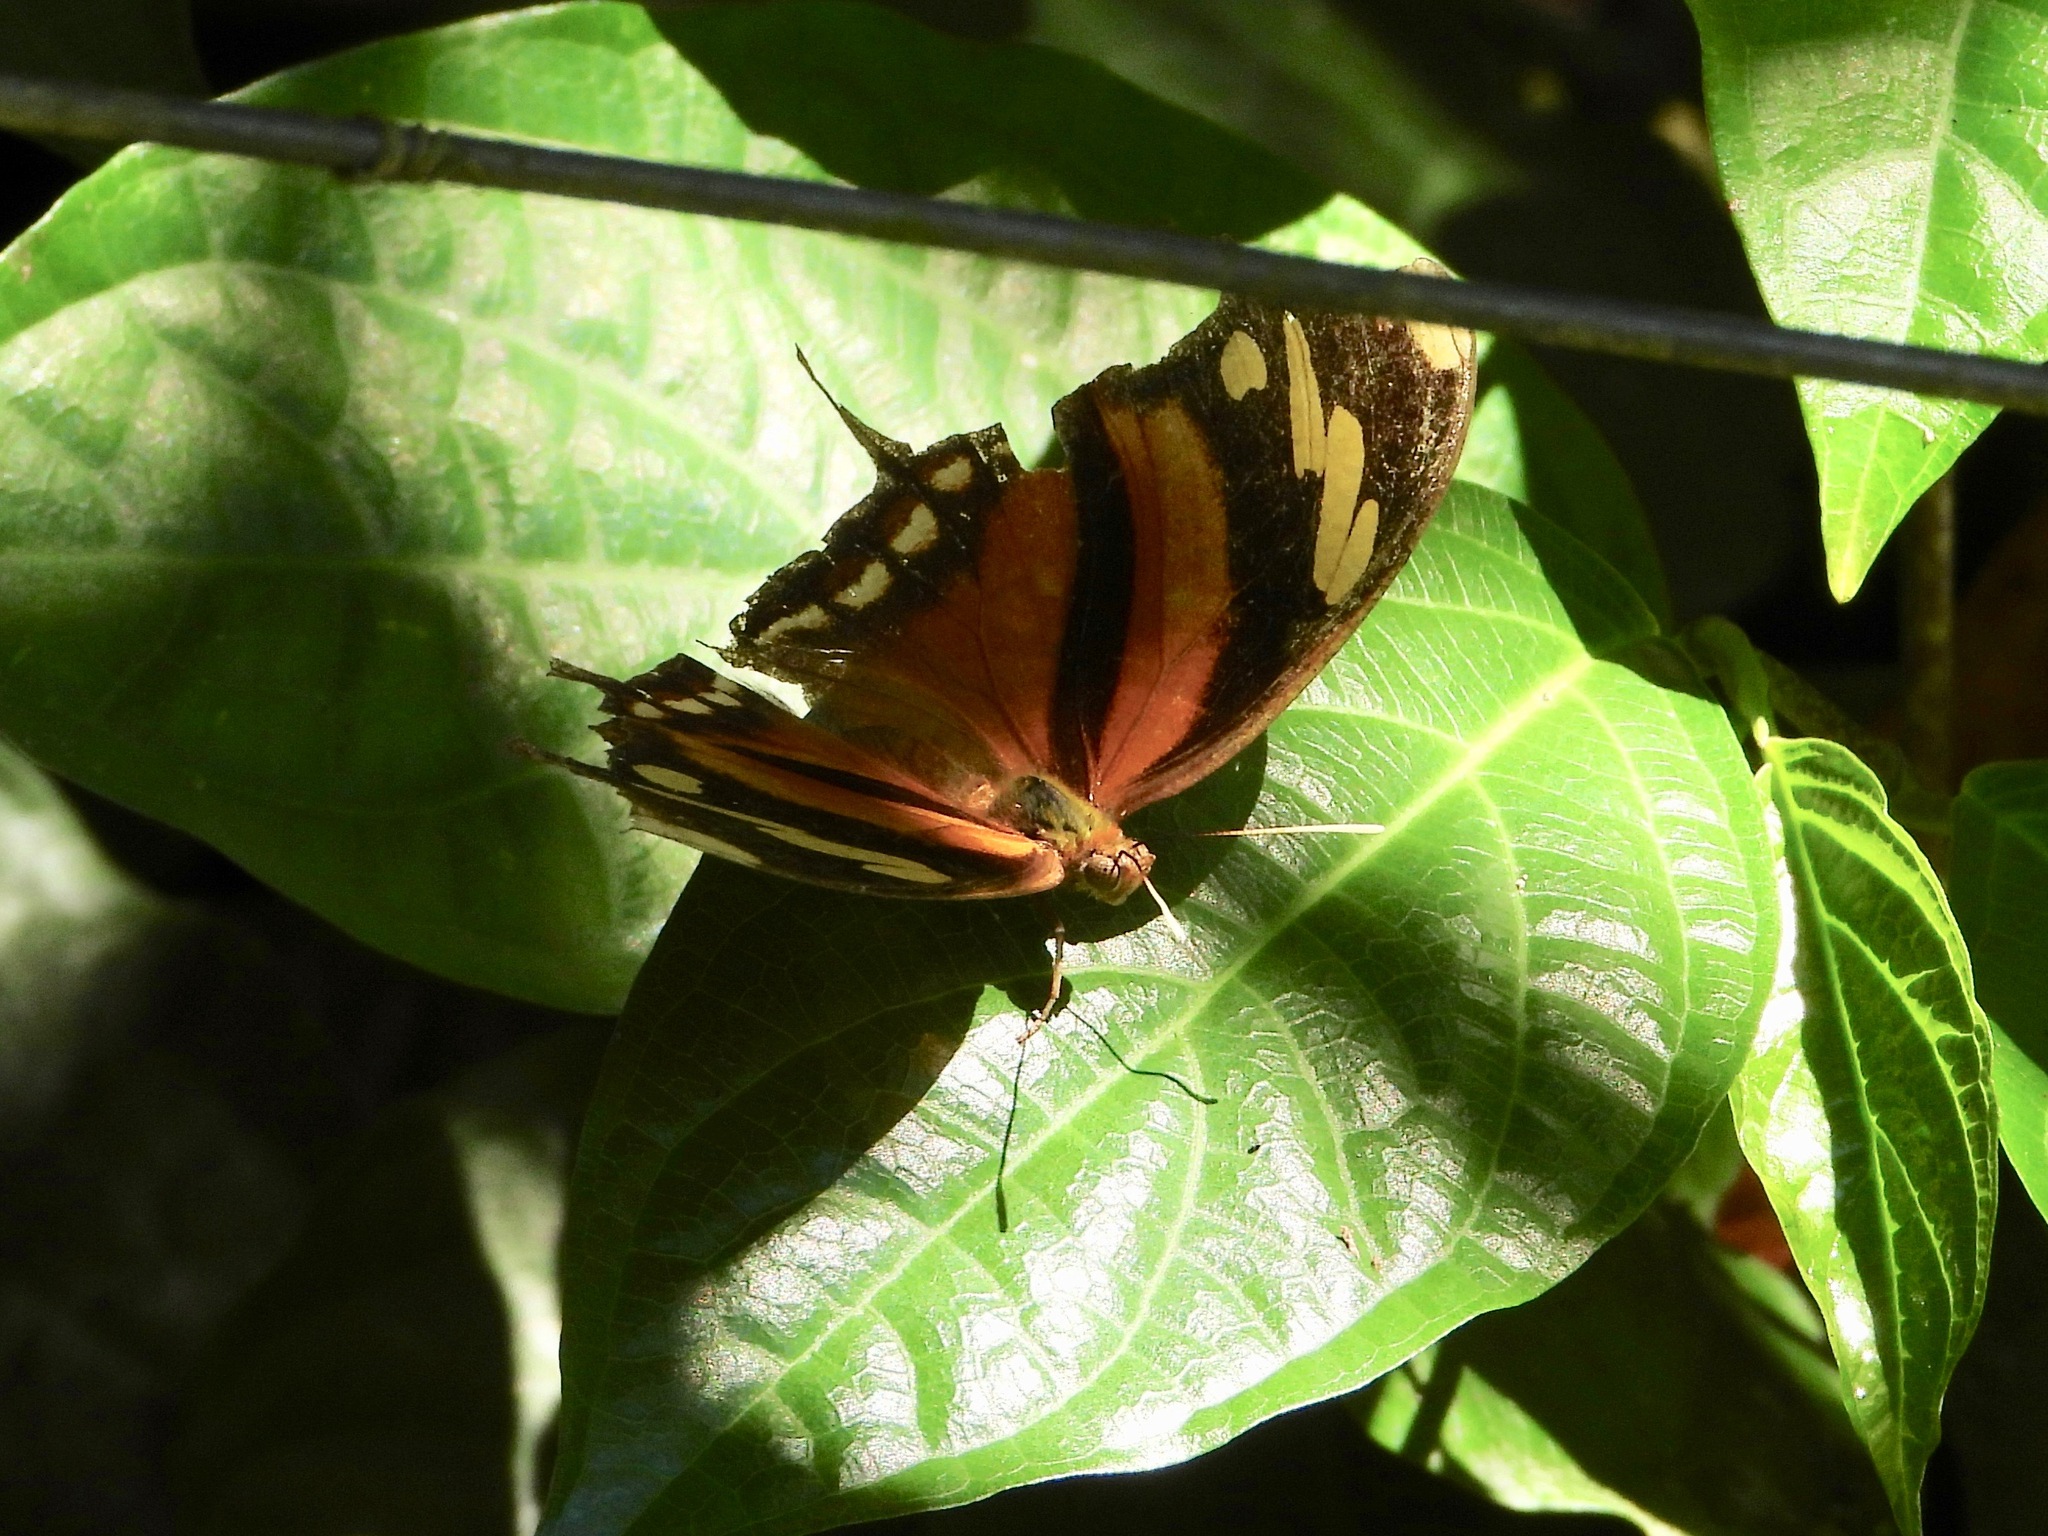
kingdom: Animalia
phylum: Arthropoda
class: Insecta
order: Lepidoptera
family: Nymphalidae
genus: Consul
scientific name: Consul fabius
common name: Tiger leafwing
